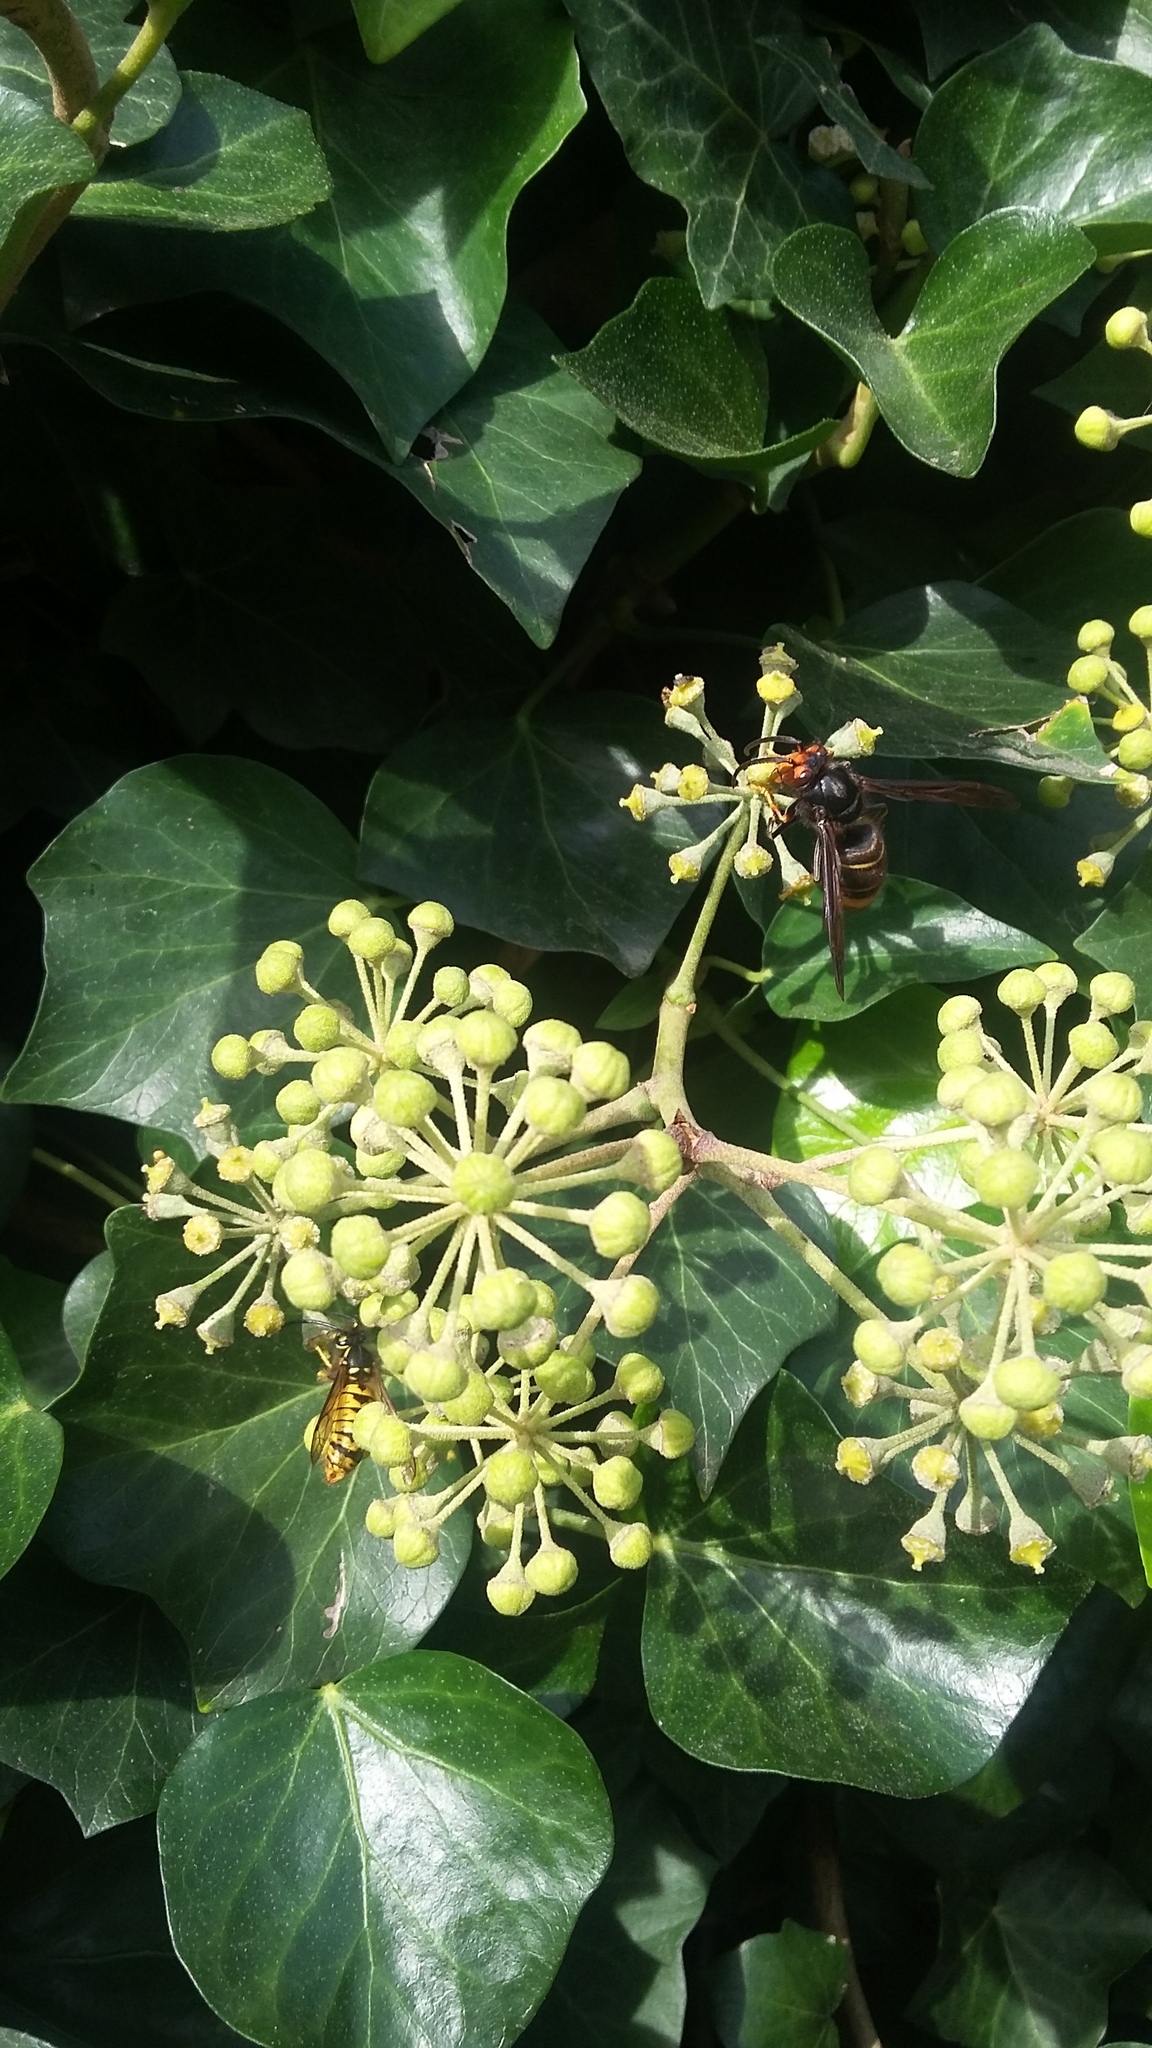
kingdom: Animalia
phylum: Arthropoda
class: Insecta
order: Hymenoptera
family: Vespidae
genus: Vespa
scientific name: Vespa velutina
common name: Asian hornet
